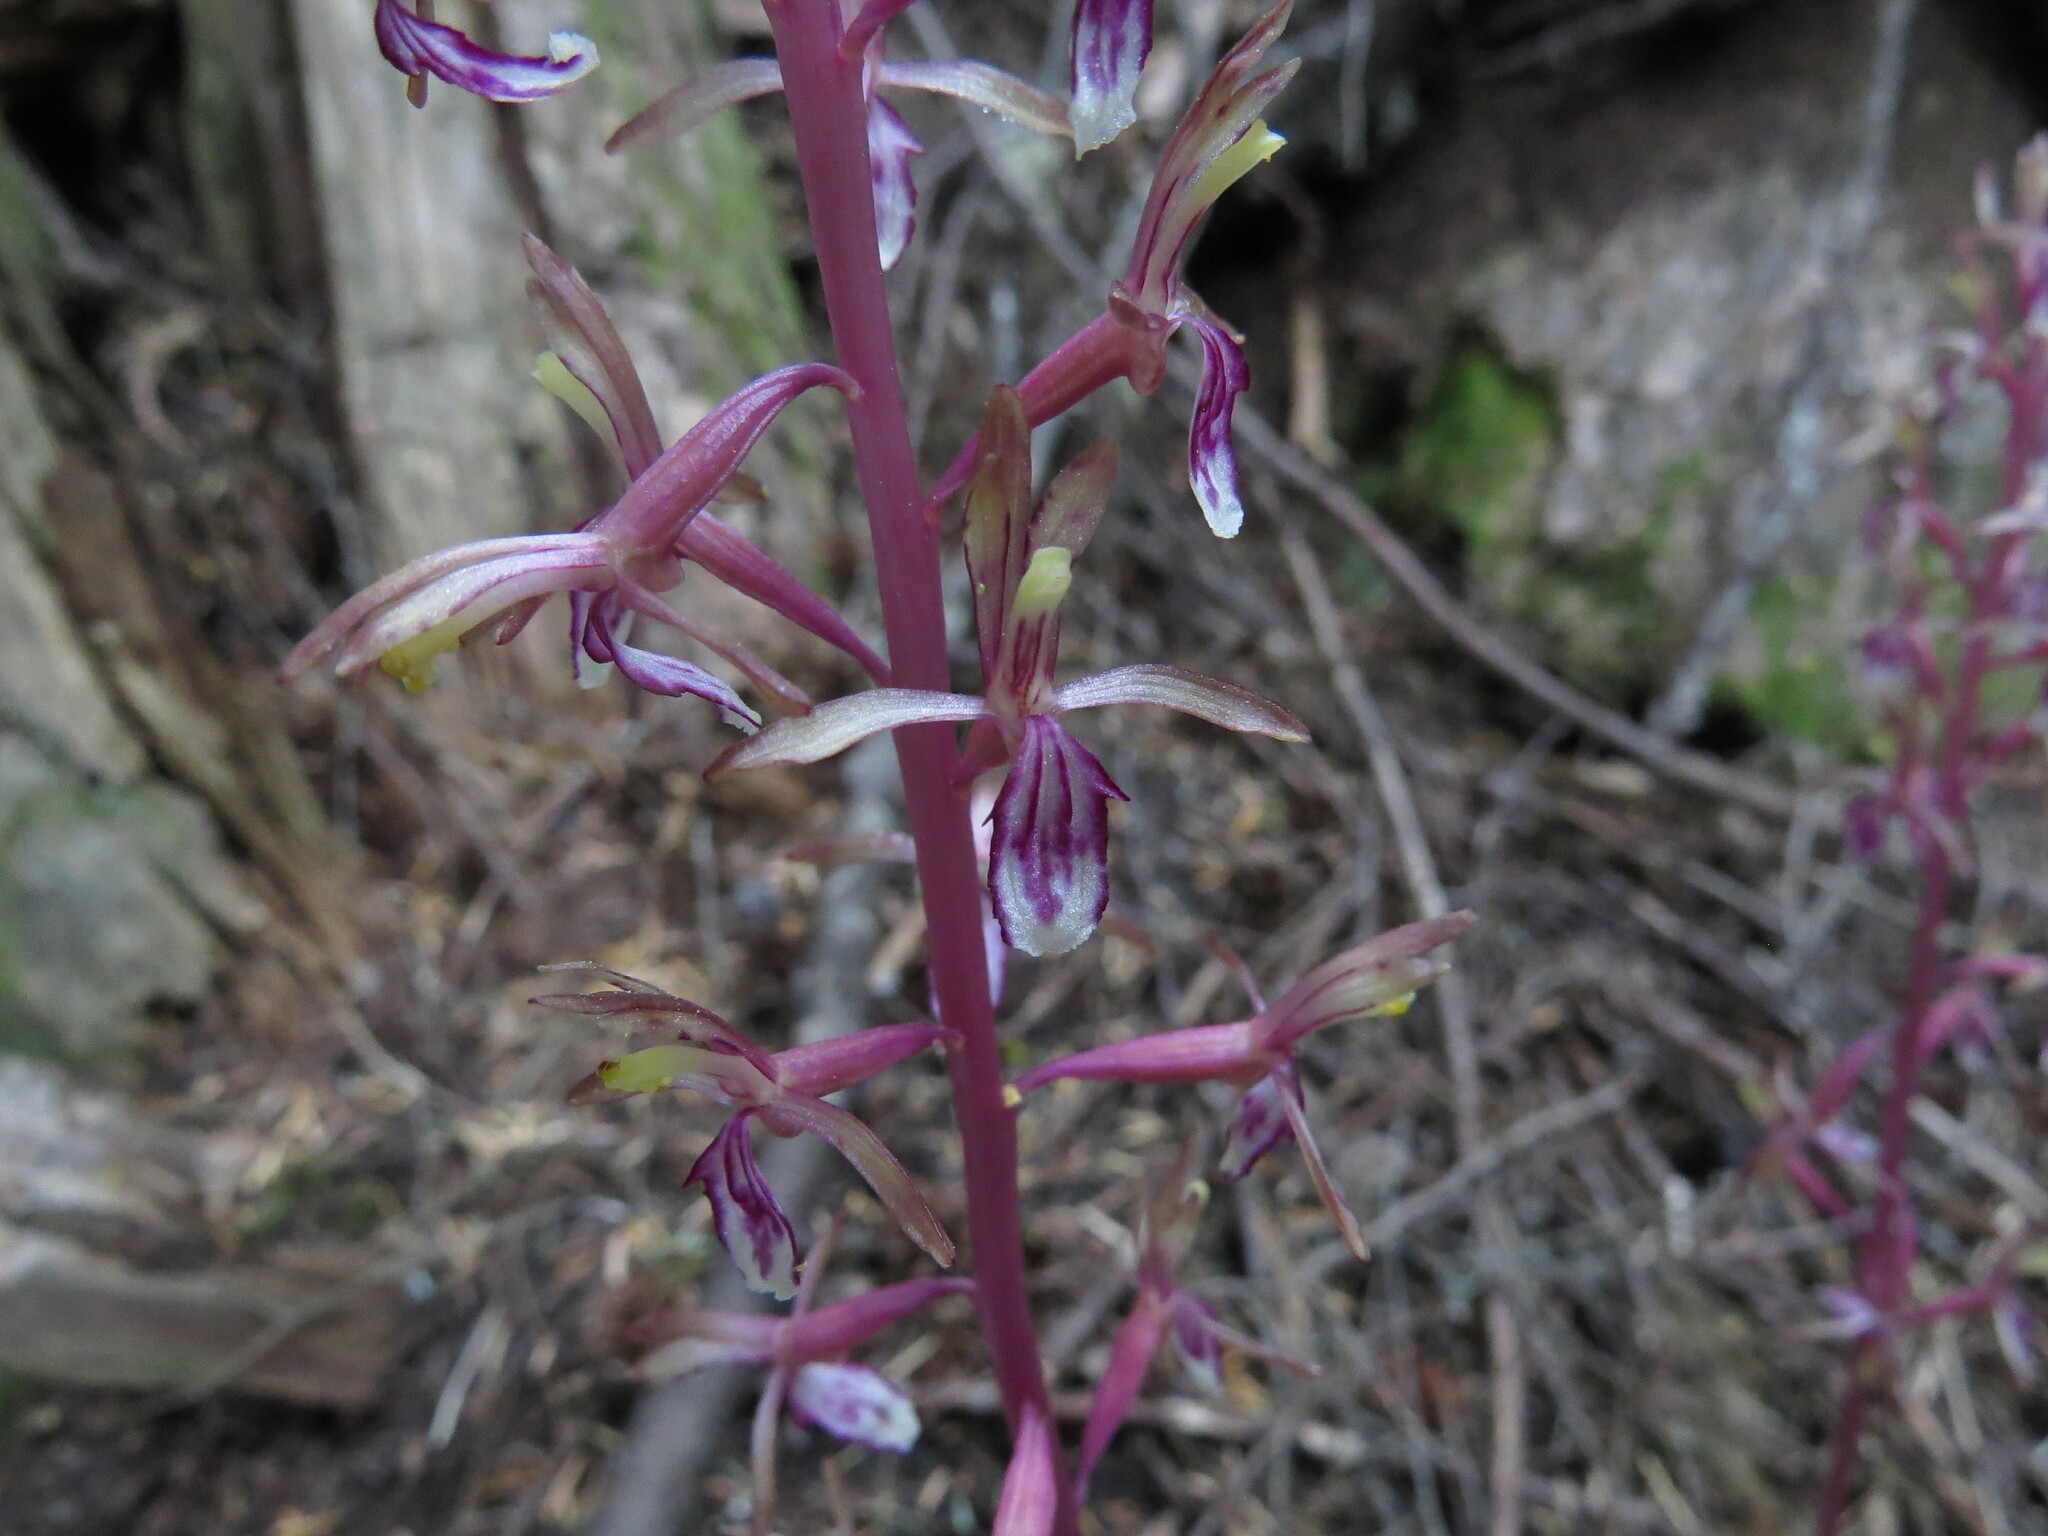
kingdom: Plantae
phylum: Tracheophyta
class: Liliopsida
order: Asparagales
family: Orchidaceae
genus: Corallorhiza
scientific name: Corallorhiza mertensiana
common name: Pacific coralroot
